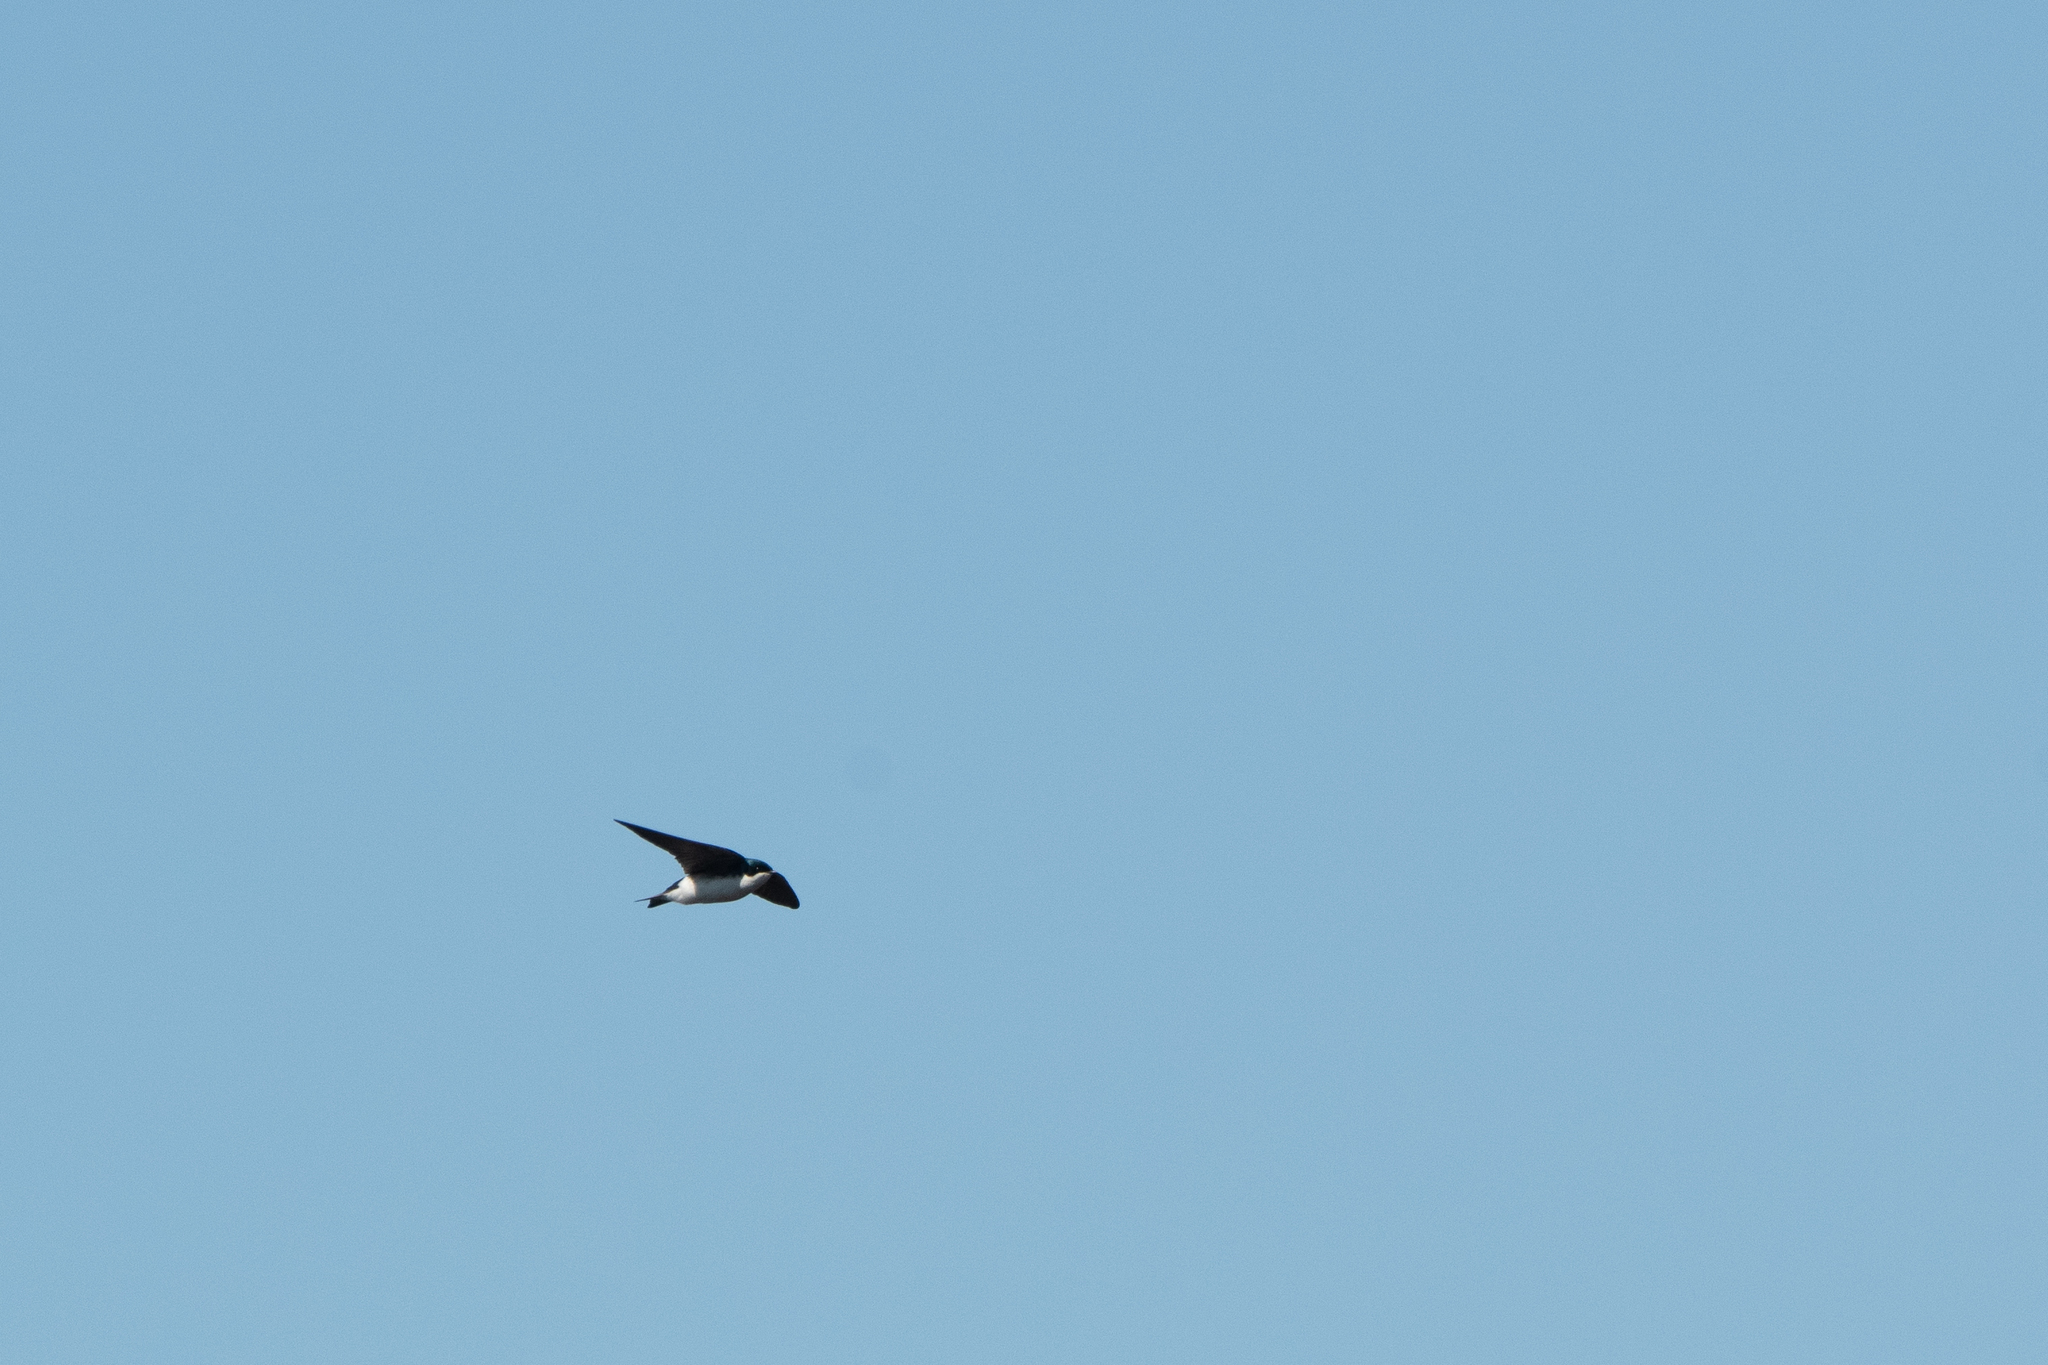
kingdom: Animalia
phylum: Chordata
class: Aves
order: Passeriformes
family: Hirundinidae
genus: Tachycineta
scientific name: Tachycineta bicolor
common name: Tree swallow
